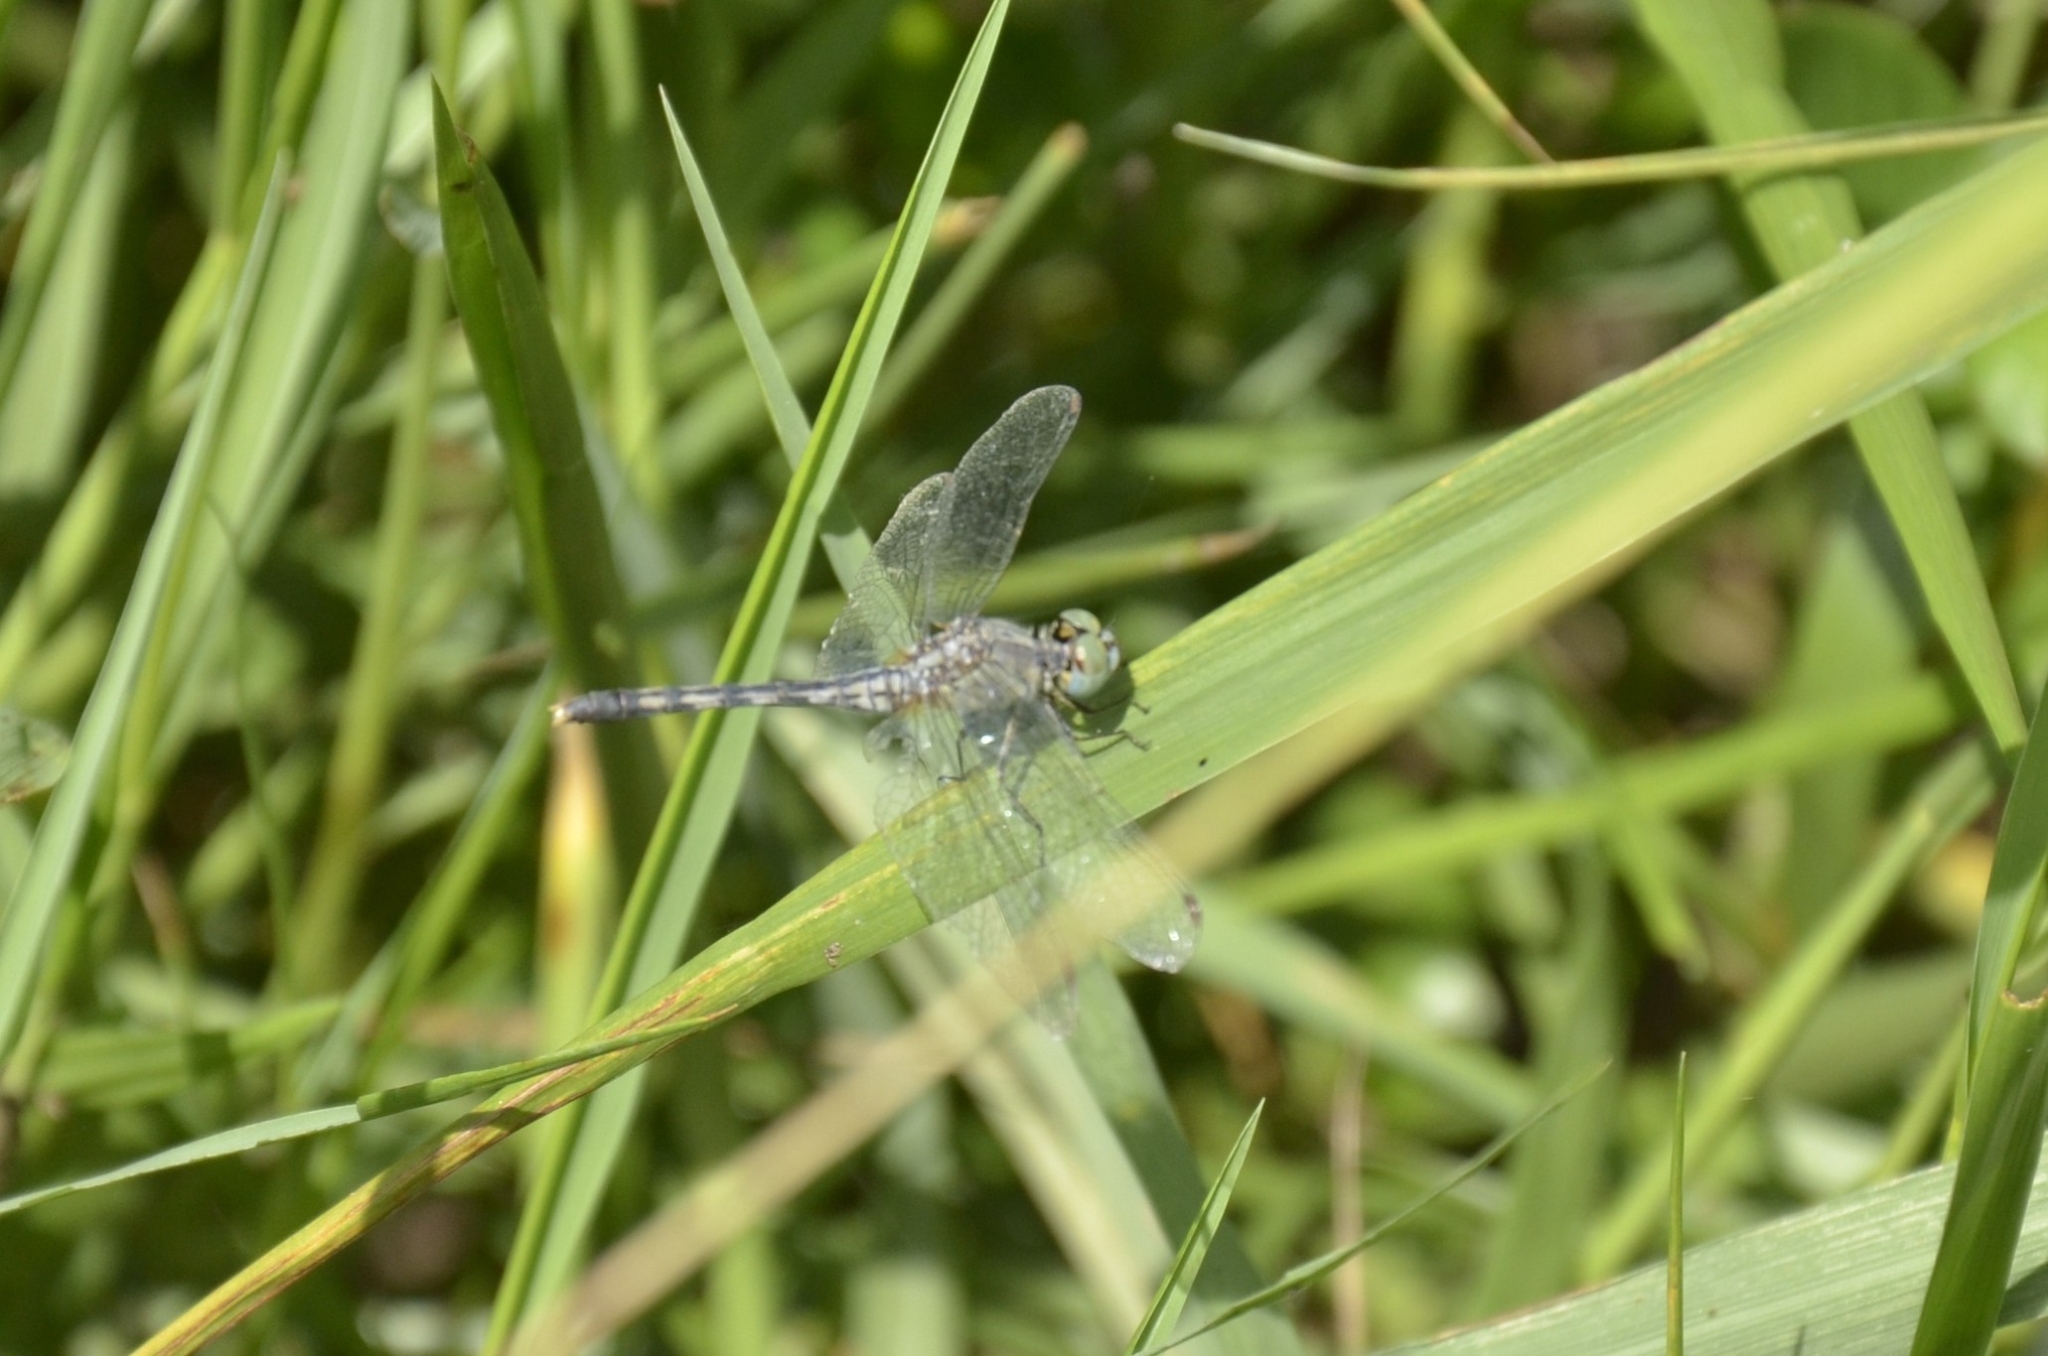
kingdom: Animalia
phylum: Arthropoda
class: Insecta
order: Odonata
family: Libellulidae
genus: Diplacodes
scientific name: Diplacodes trivialis
